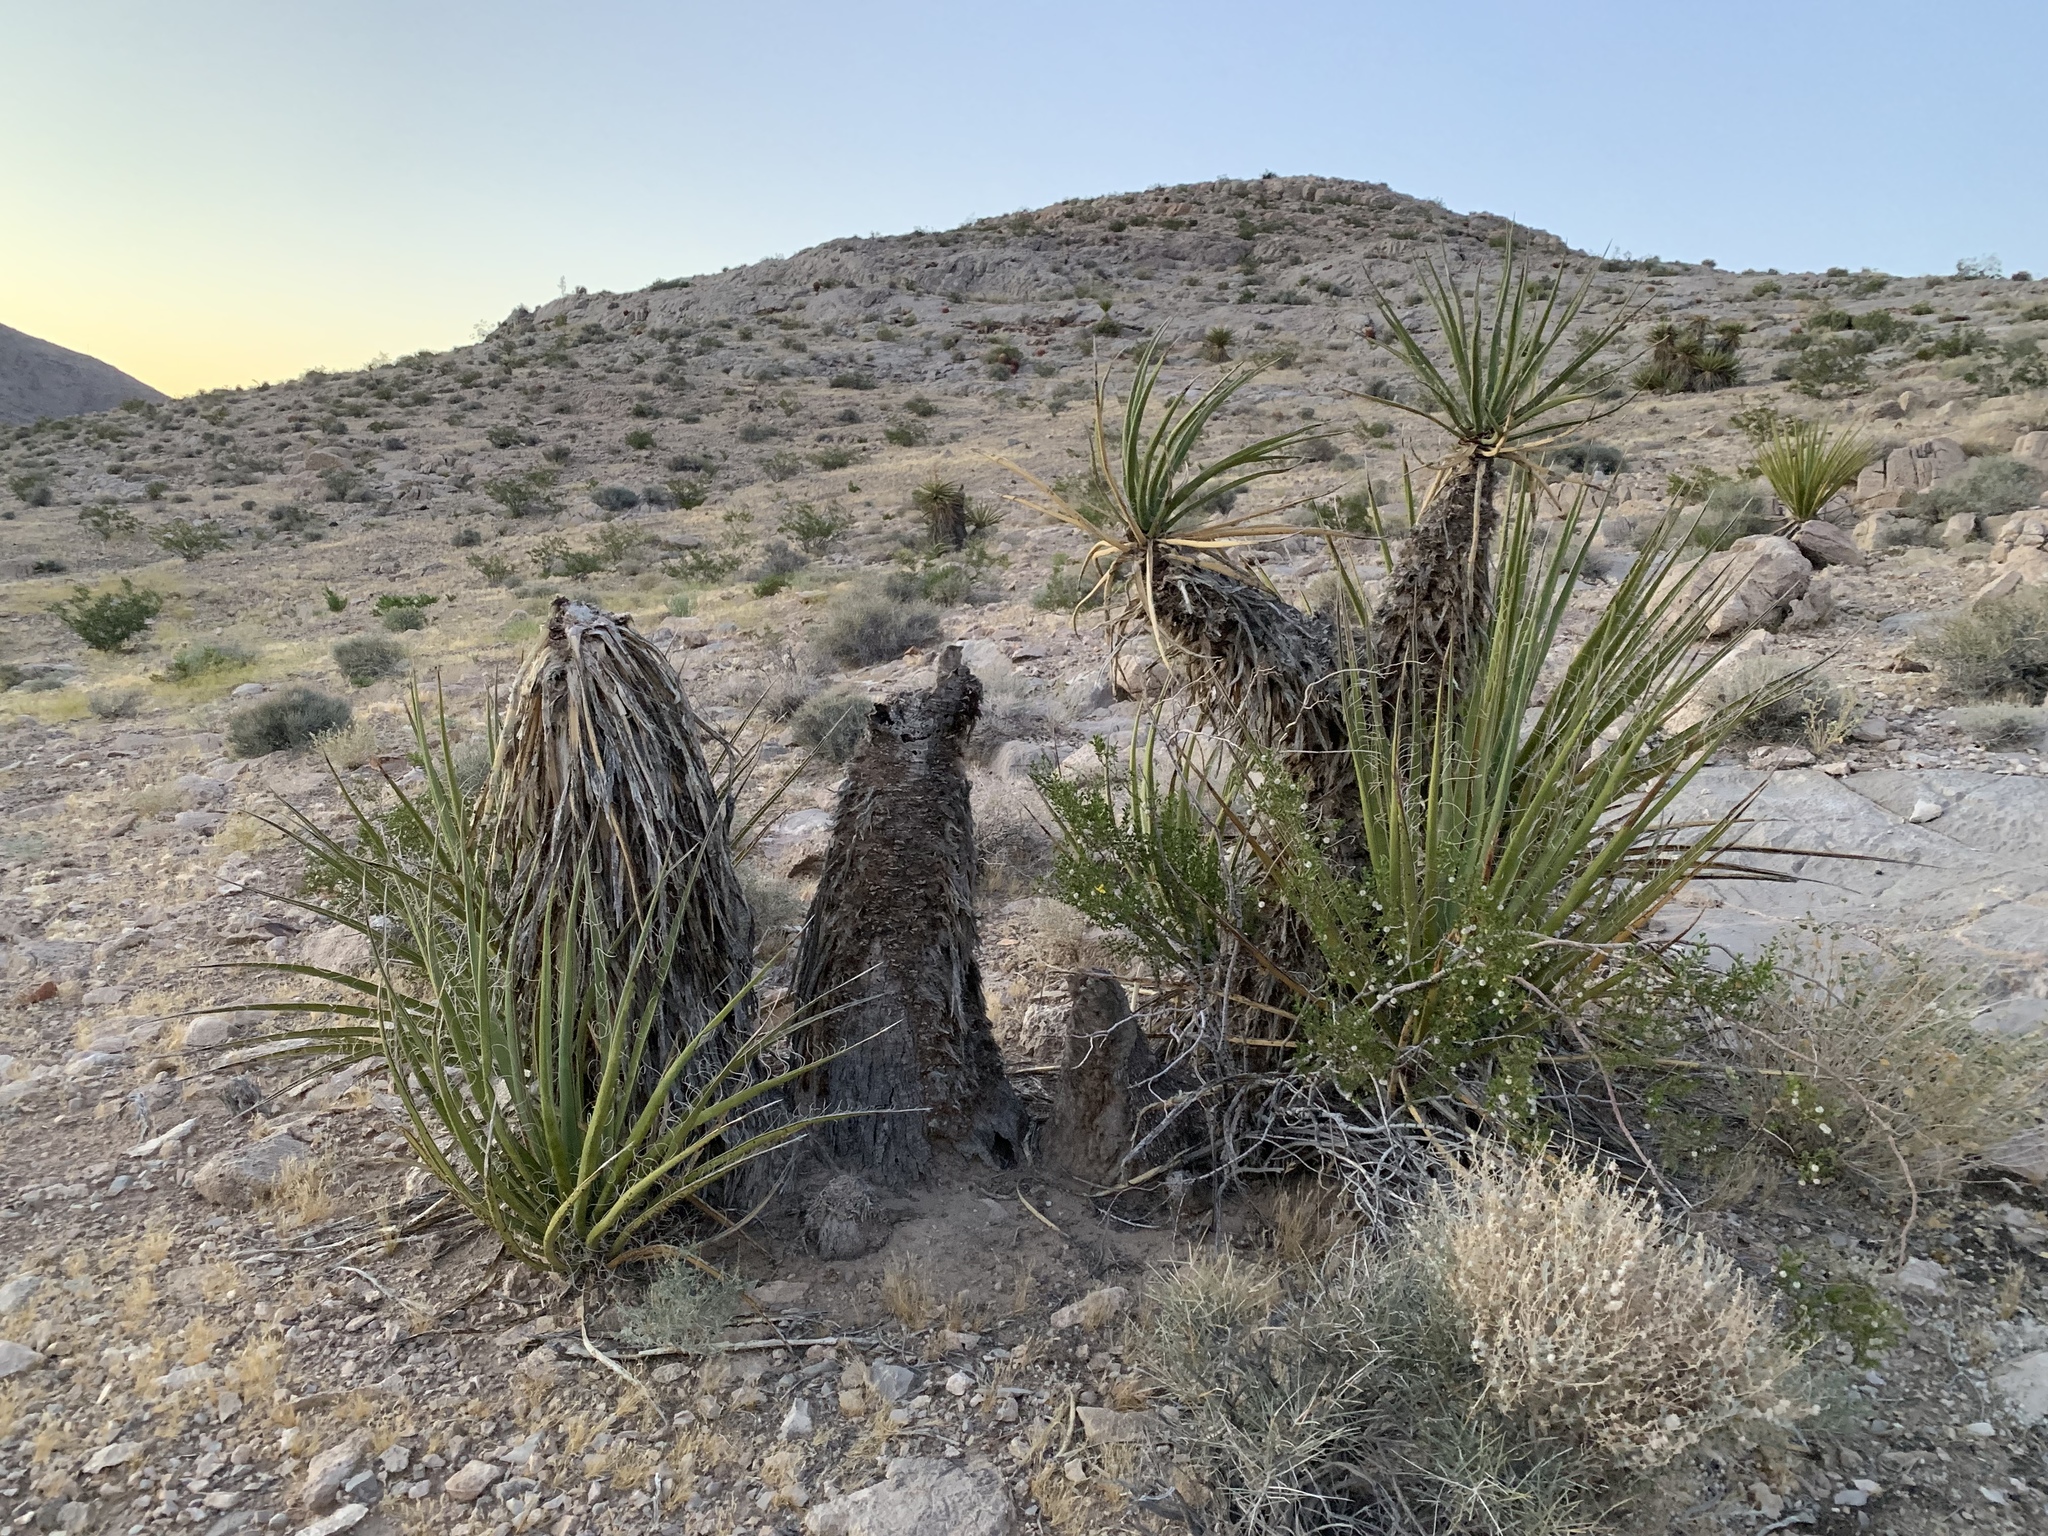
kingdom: Plantae
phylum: Tracheophyta
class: Liliopsida
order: Asparagales
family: Asparagaceae
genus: Yucca
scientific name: Yucca schidigera
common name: Mojave yucca
